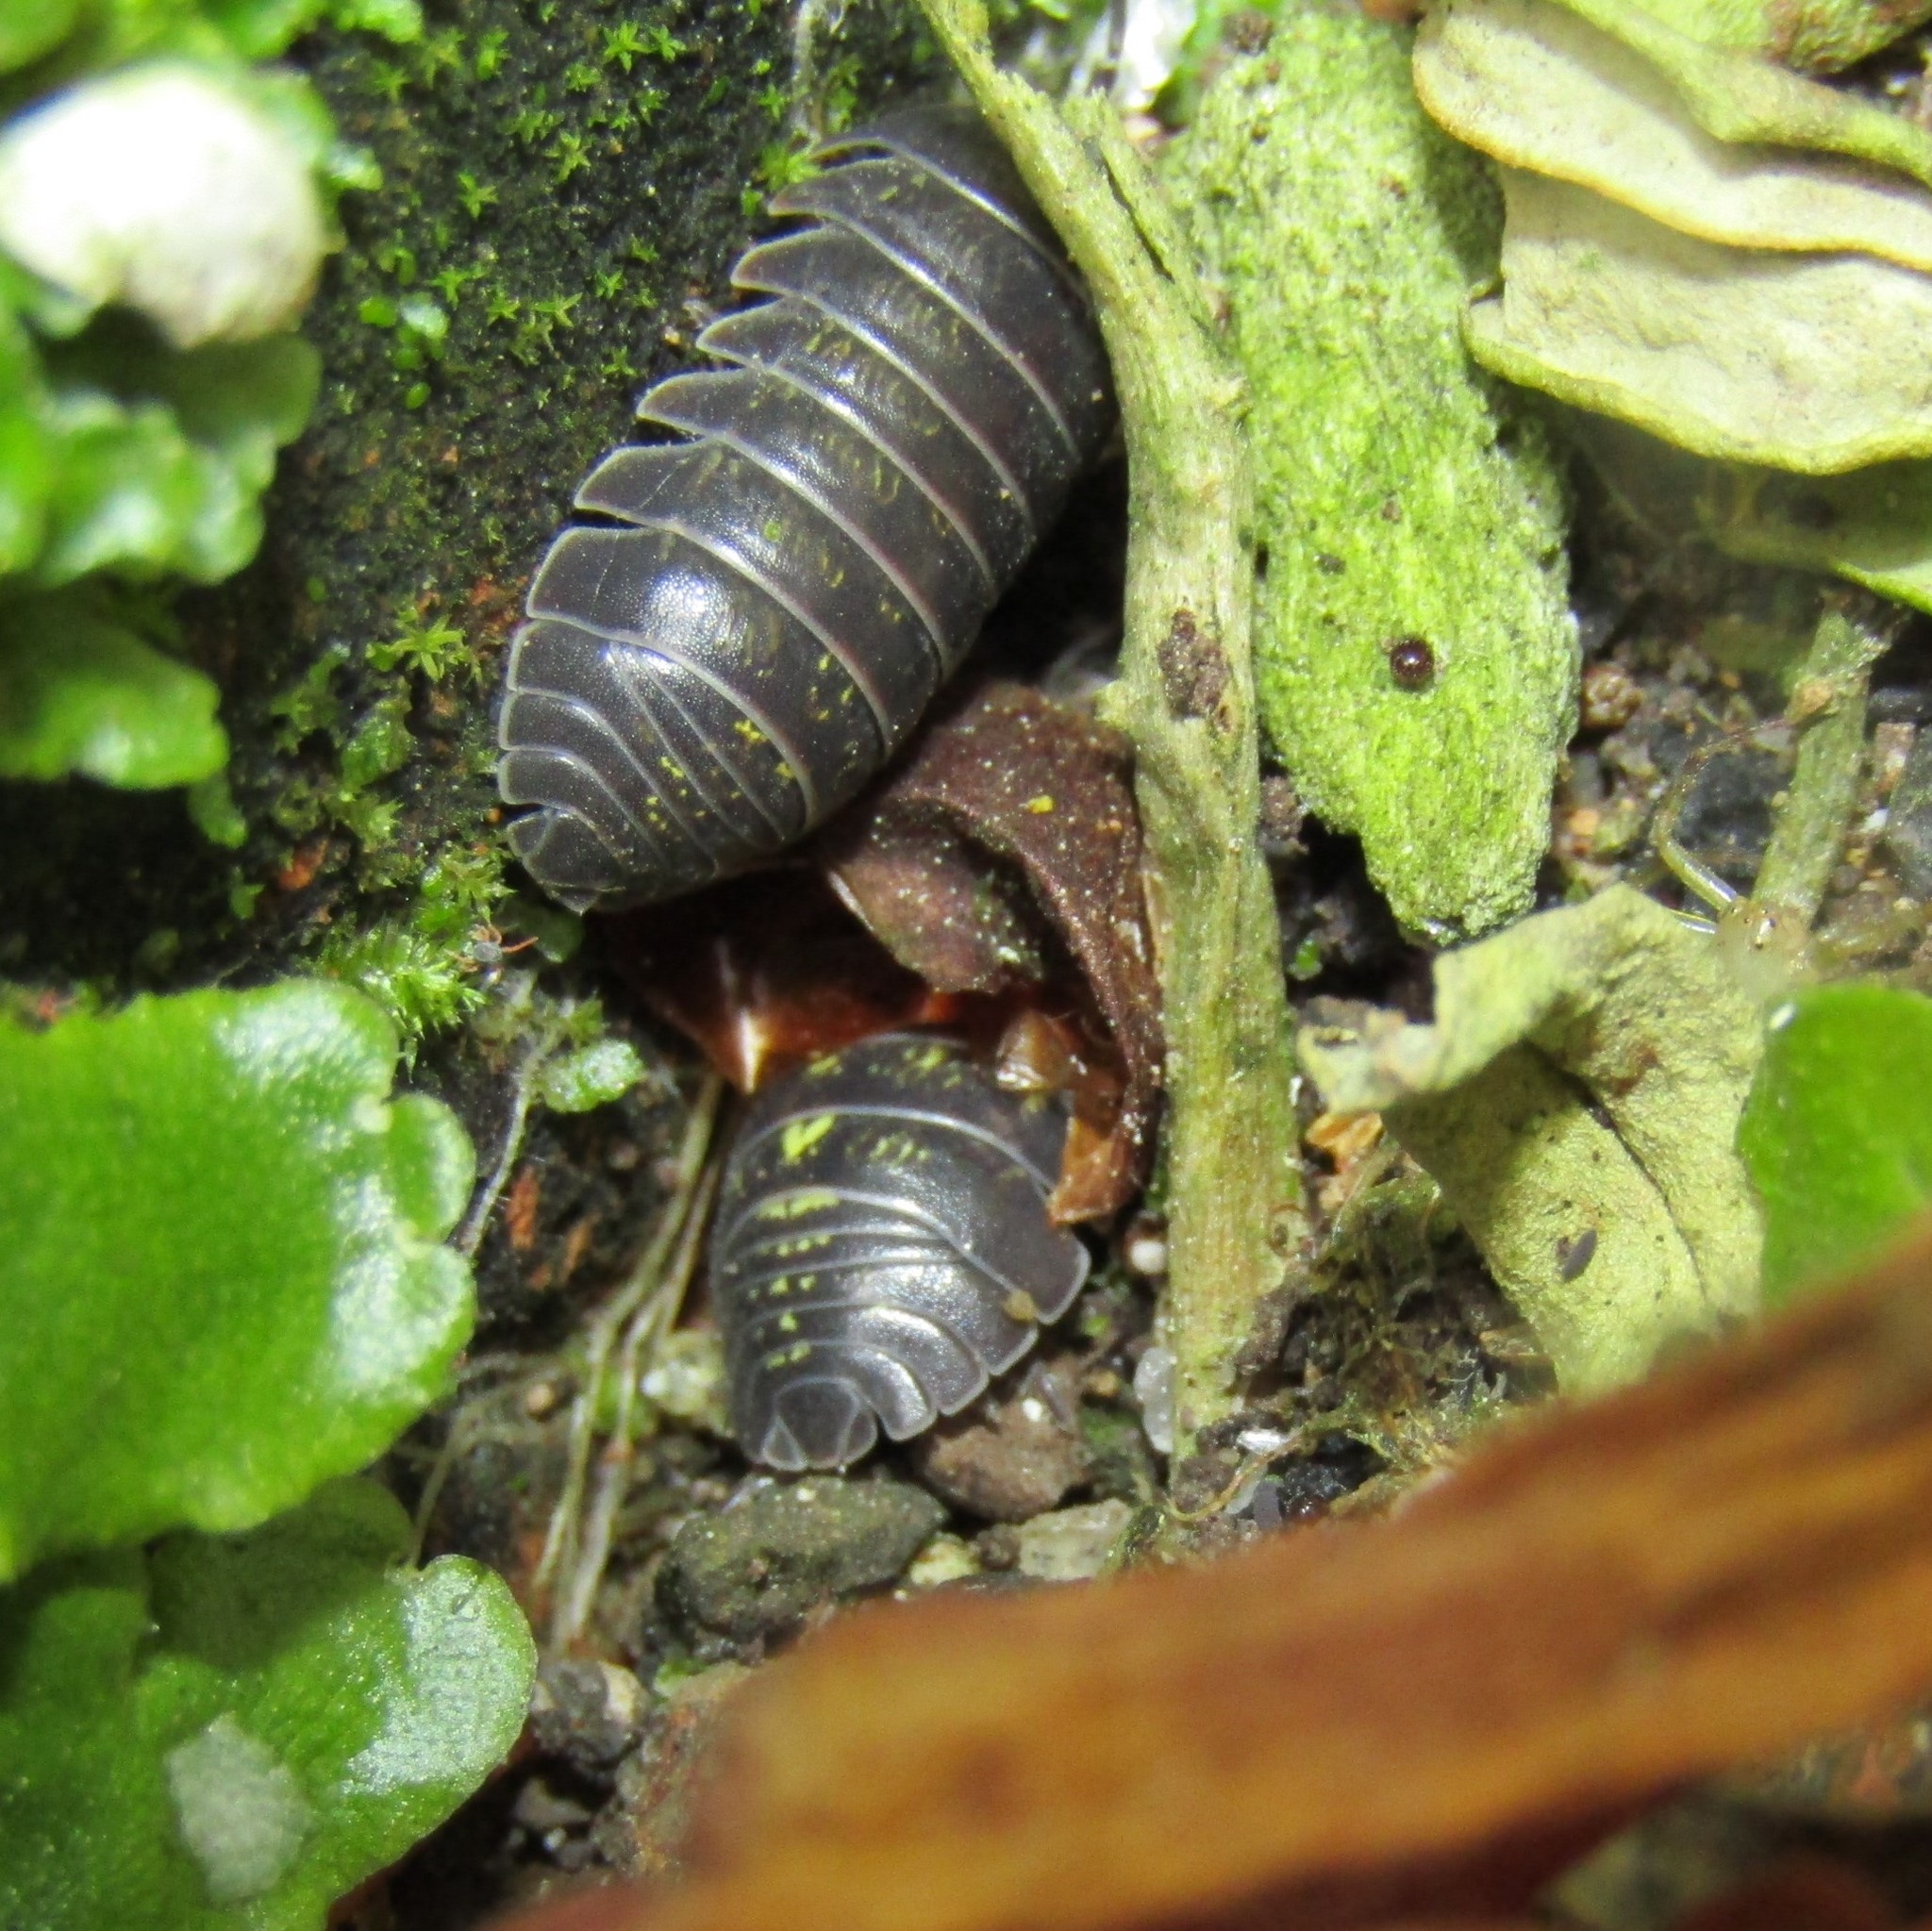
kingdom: Animalia
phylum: Arthropoda
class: Malacostraca
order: Isopoda
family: Armadillidiidae
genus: Armadillidium
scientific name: Armadillidium vulgare
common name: Common pill woodlouse
